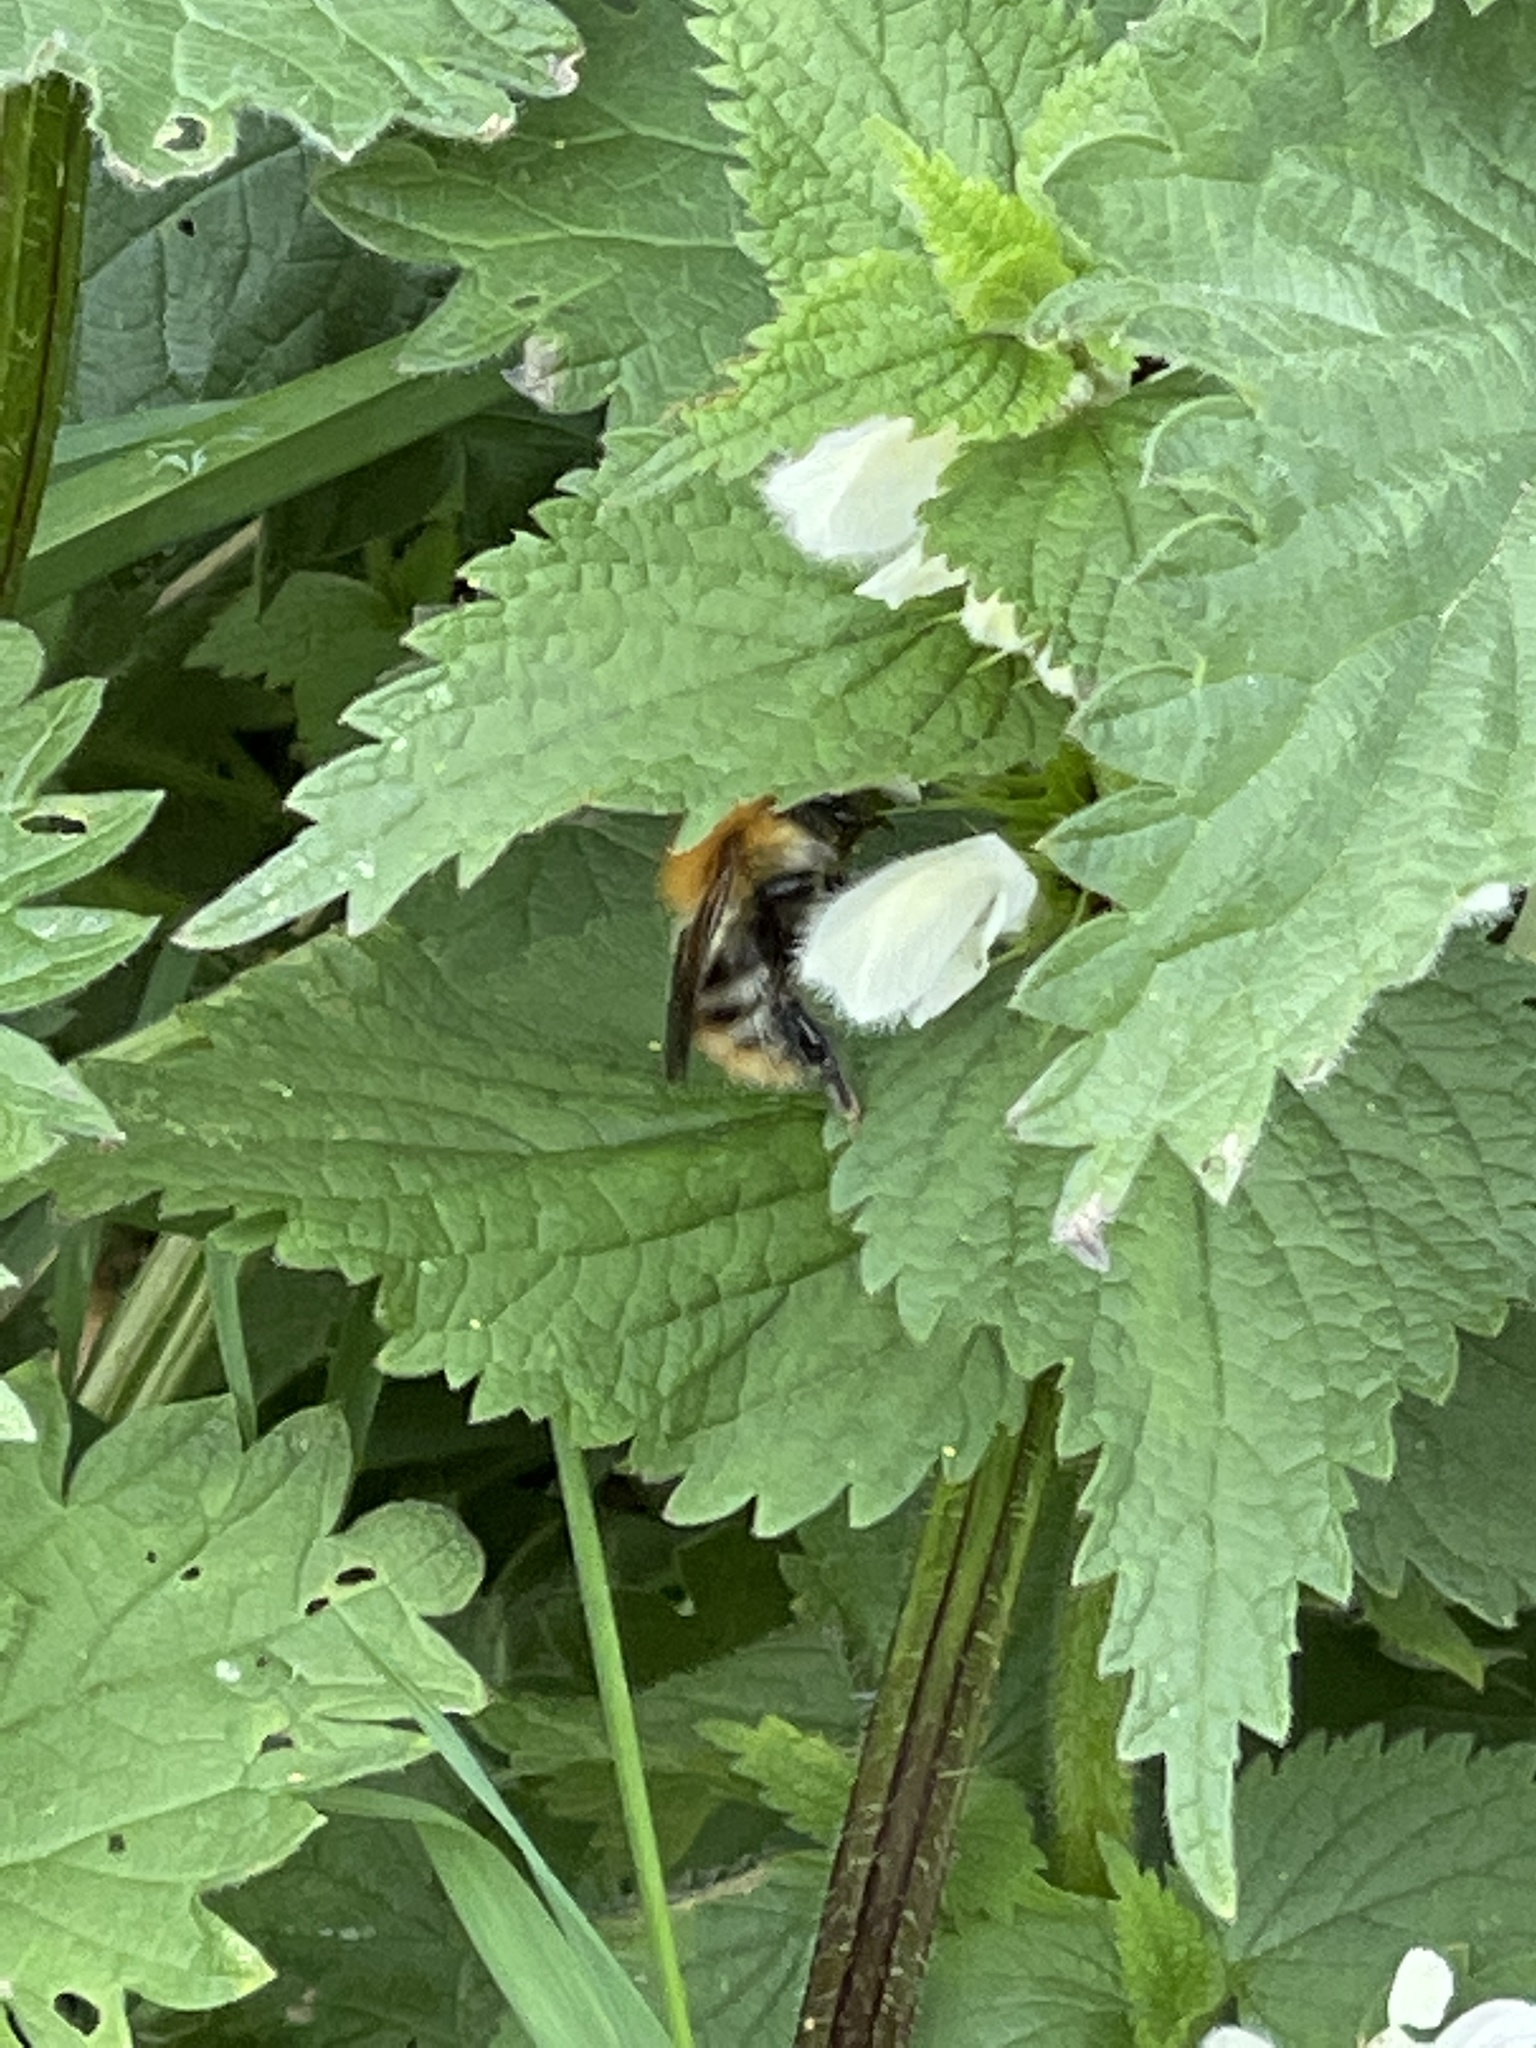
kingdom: Animalia
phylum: Arthropoda
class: Insecta
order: Hymenoptera
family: Apidae
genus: Bombus
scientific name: Bombus pascuorum
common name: Common carder bee
